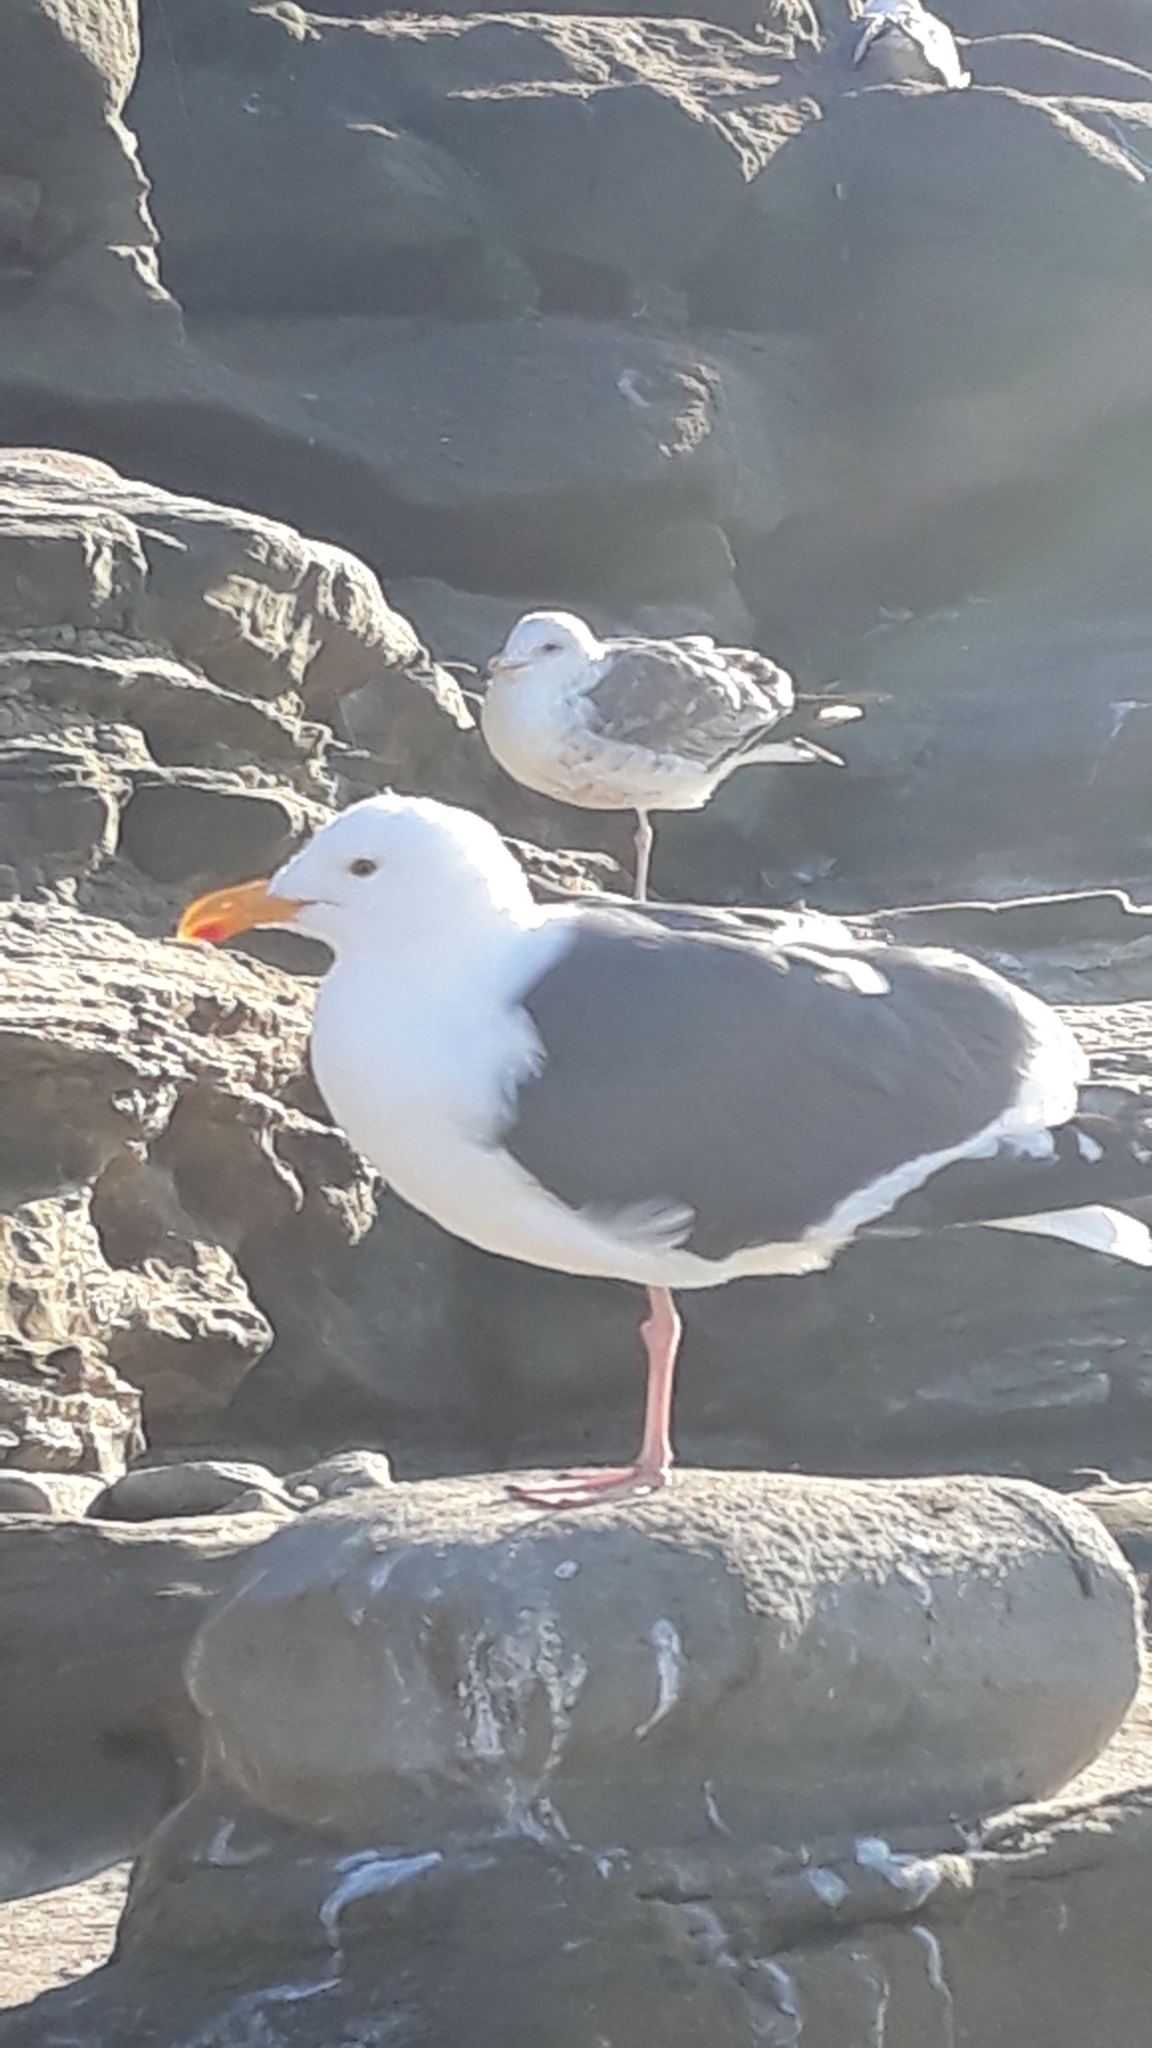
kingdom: Animalia
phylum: Chordata
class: Aves
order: Charadriiformes
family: Laridae
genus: Larus
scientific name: Larus occidentalis
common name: Western gull
